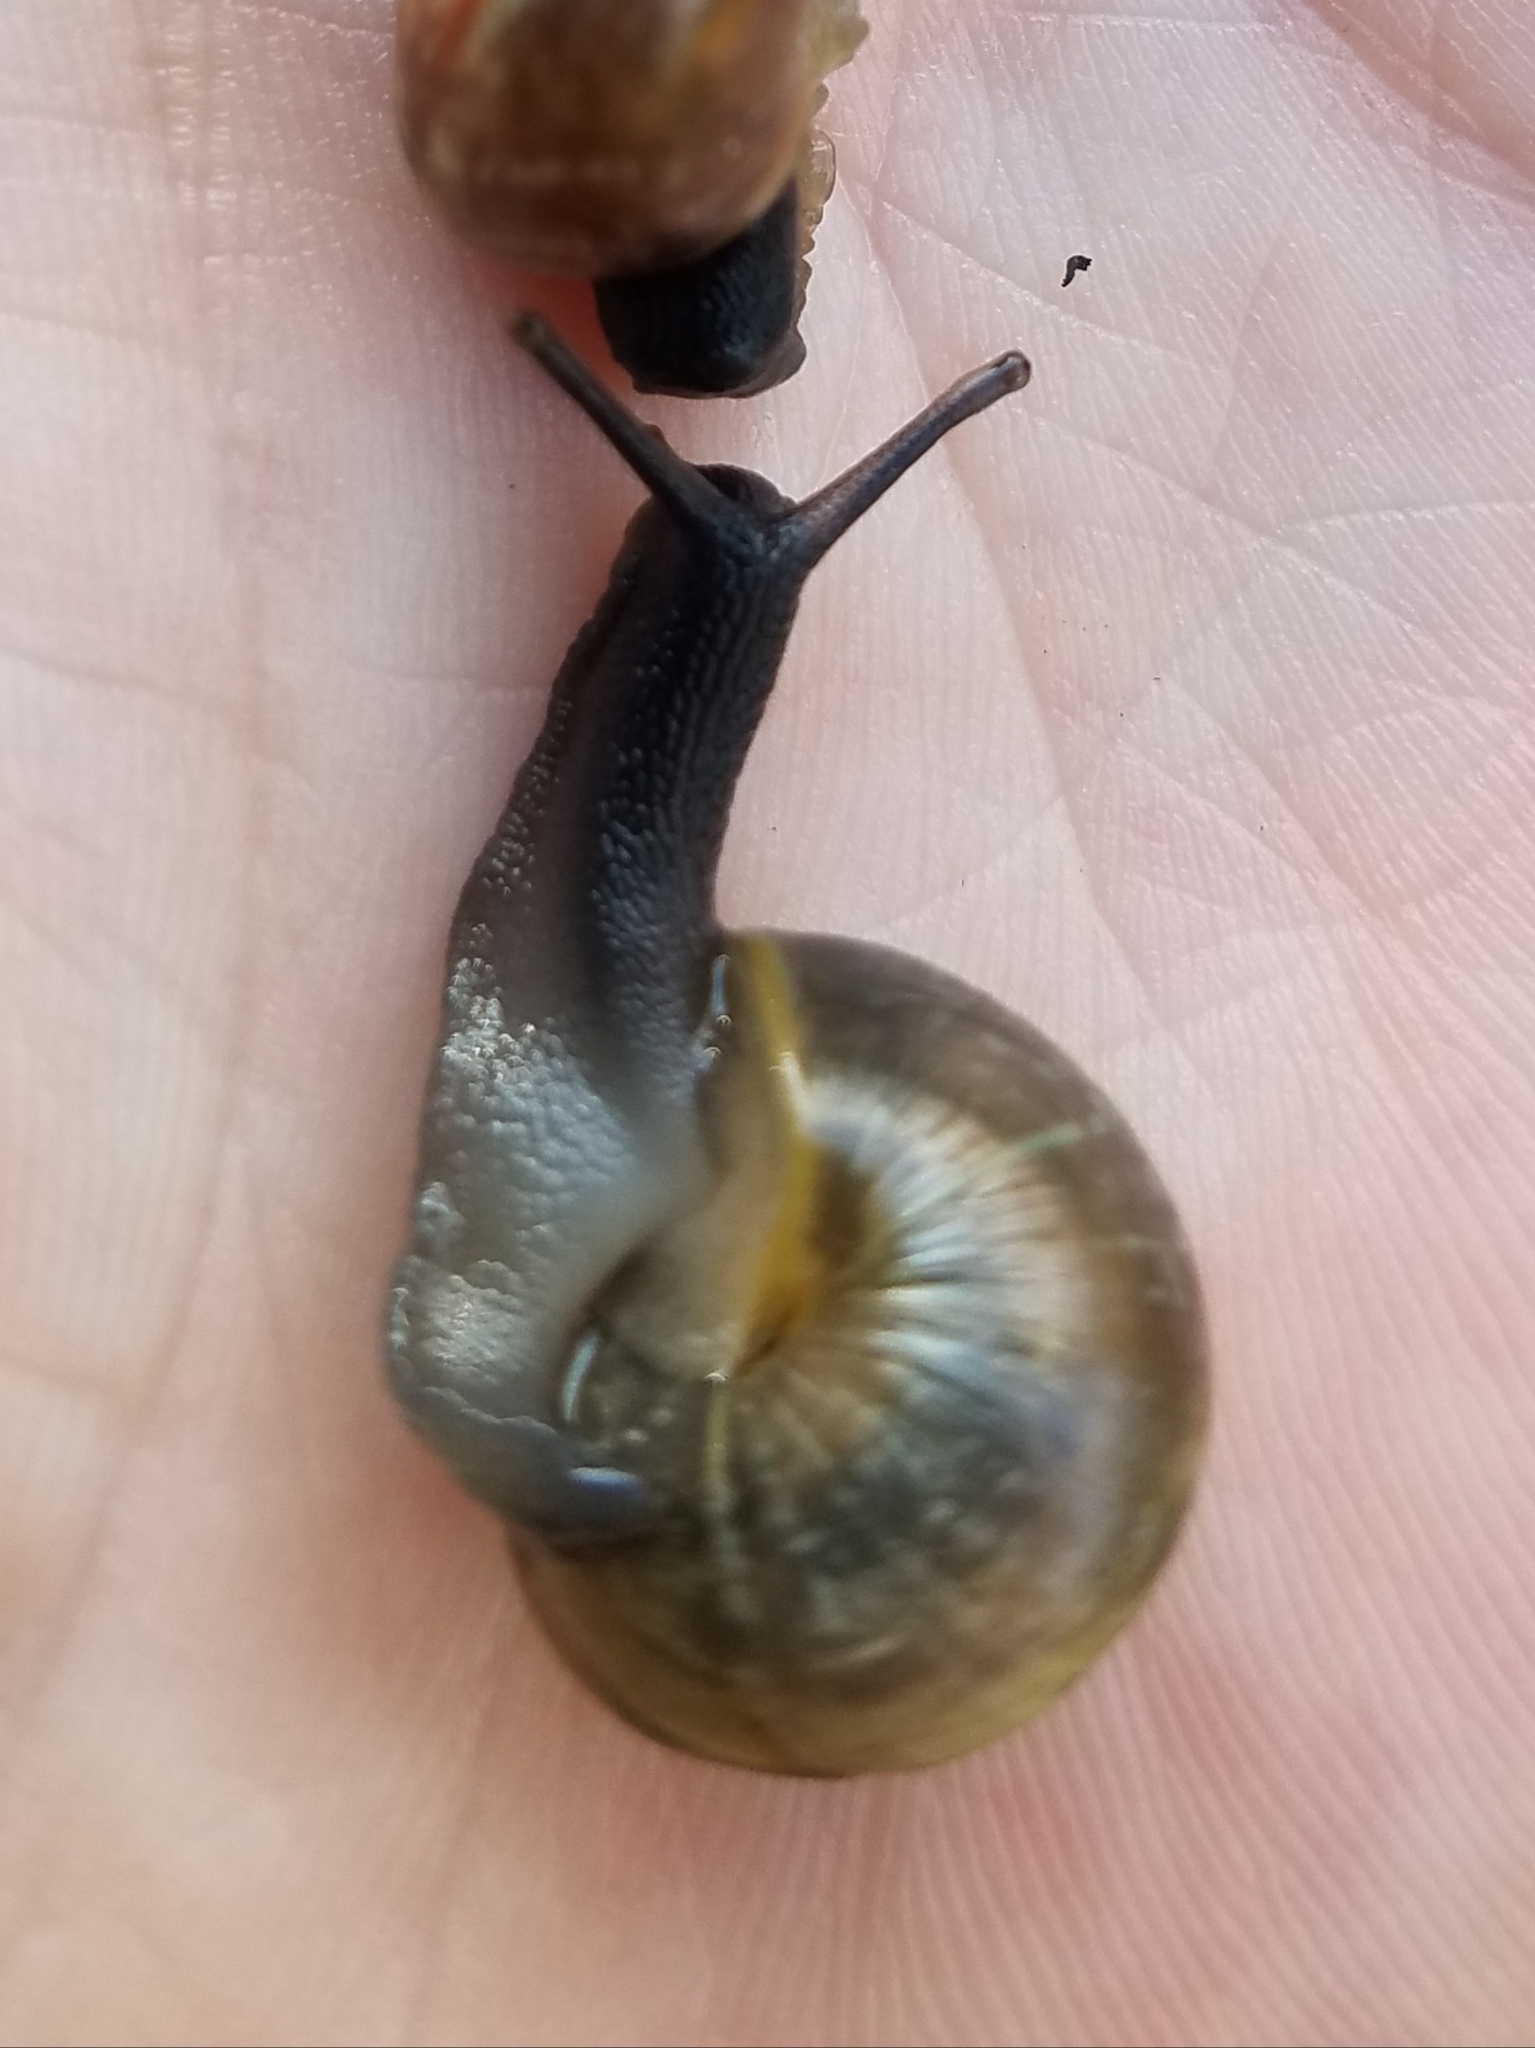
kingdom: Animalia
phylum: Mollusca
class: Gastropoda
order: Stylommatophora
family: Helicidae
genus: Arianta
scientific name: Arianta arbustorum
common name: Copse snail
